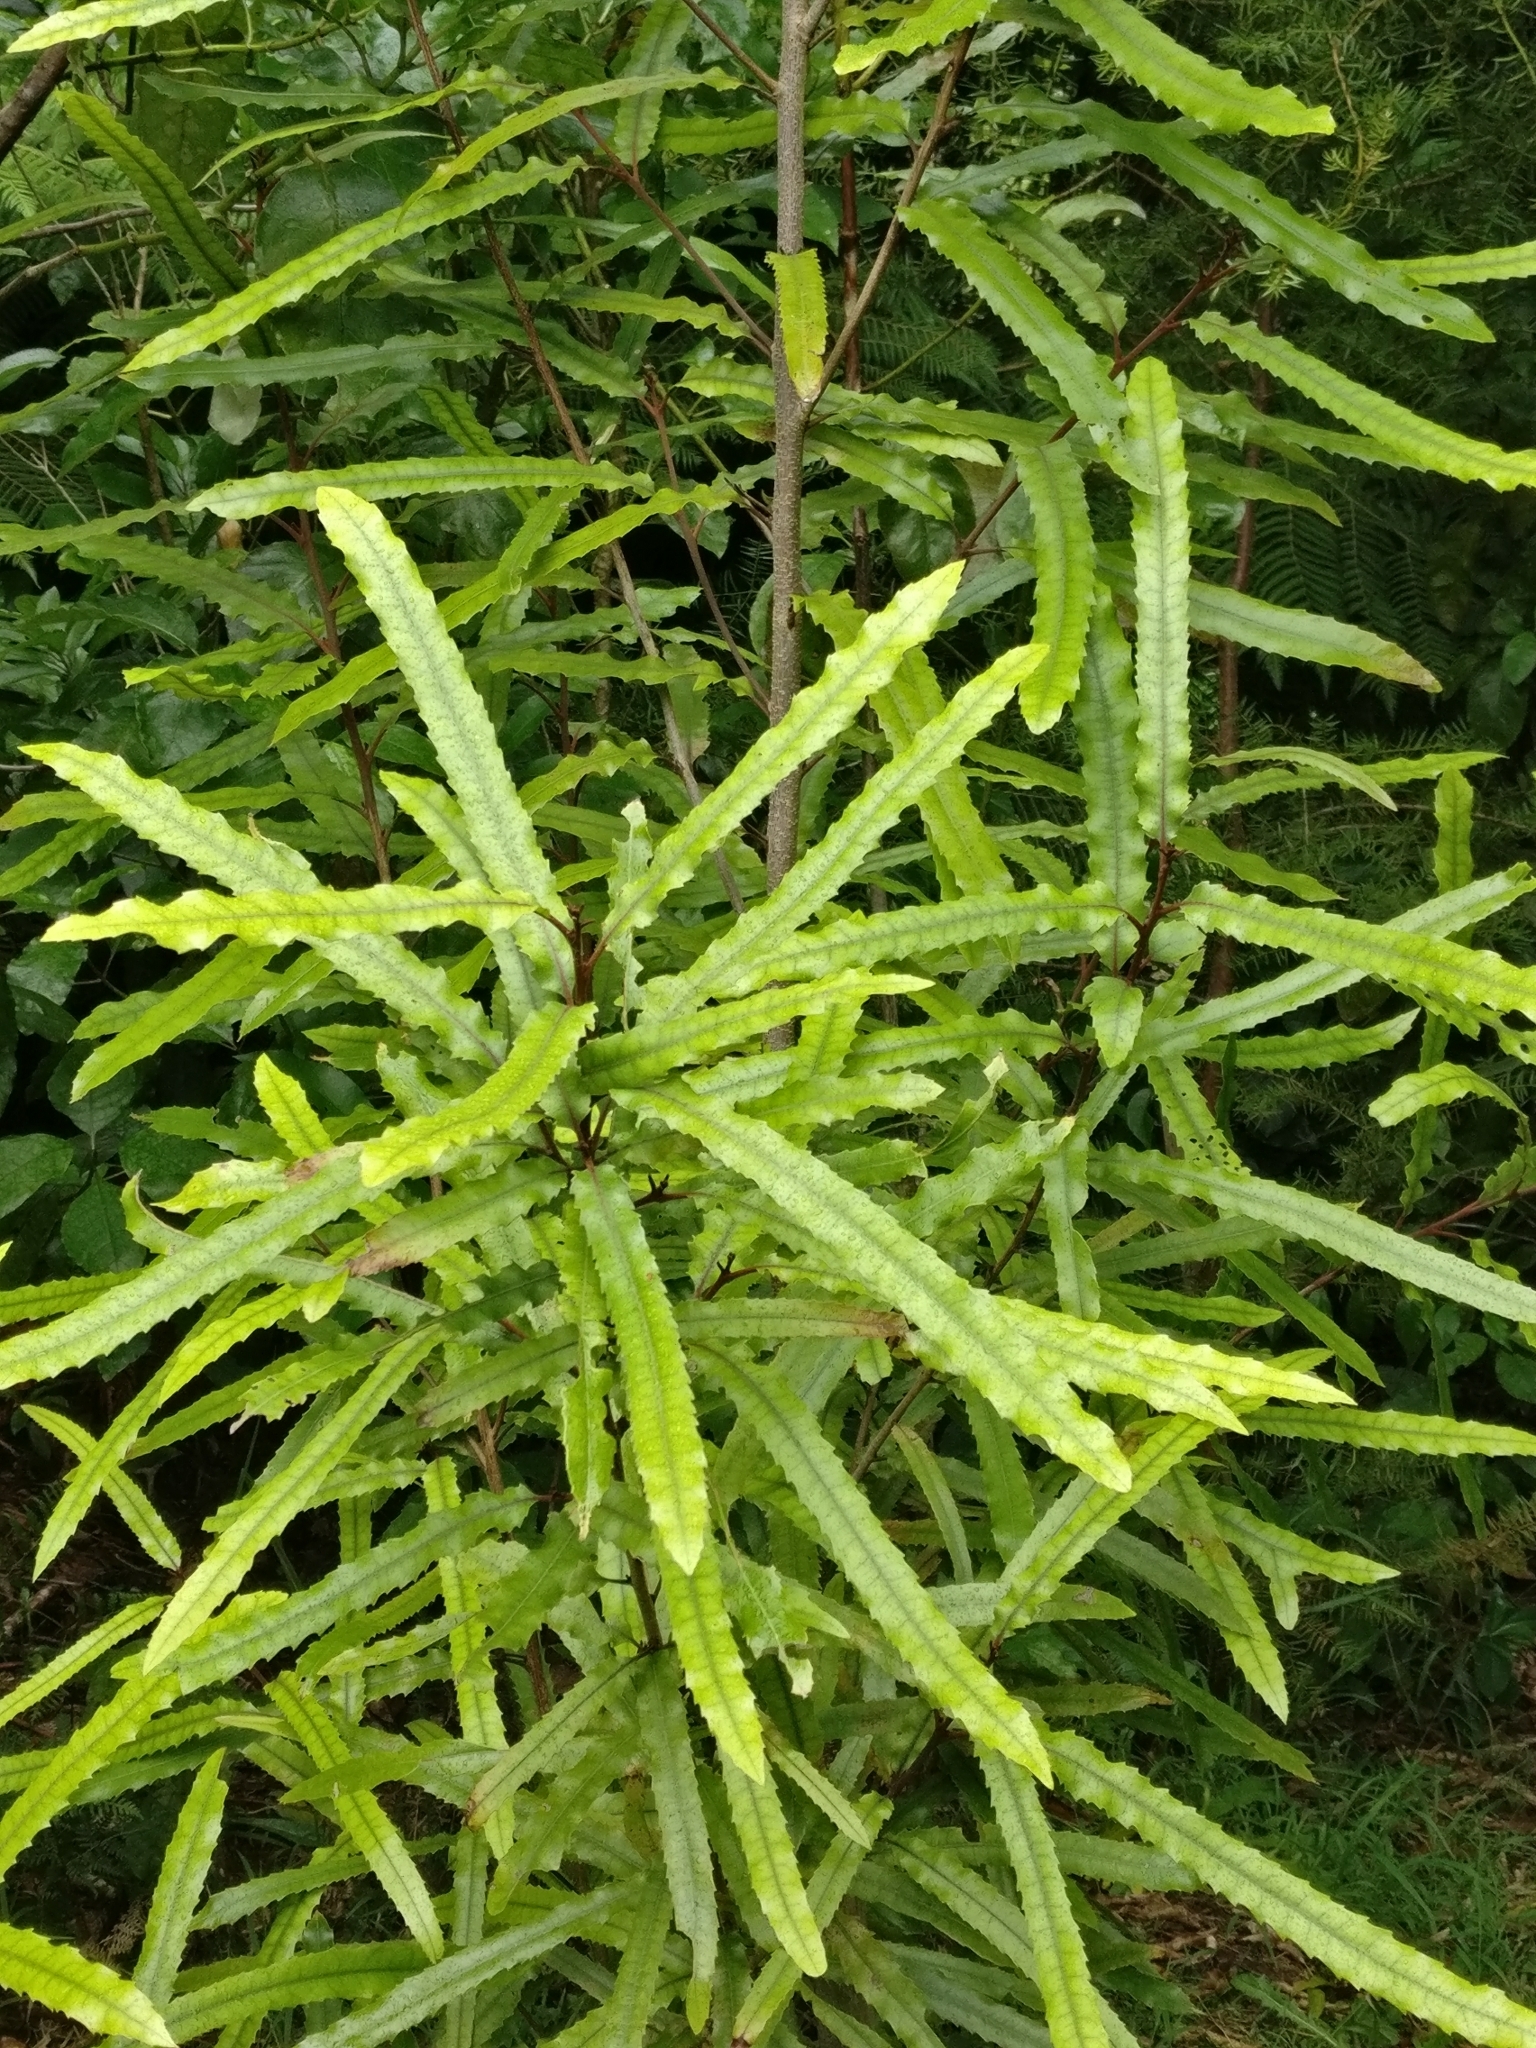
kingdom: Plantae
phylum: Tracheophyta
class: Magnoliopsida
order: Proteales
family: Proteaceae
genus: Knightia
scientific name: Knightia excelsa
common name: New zealand-honeysuckle
